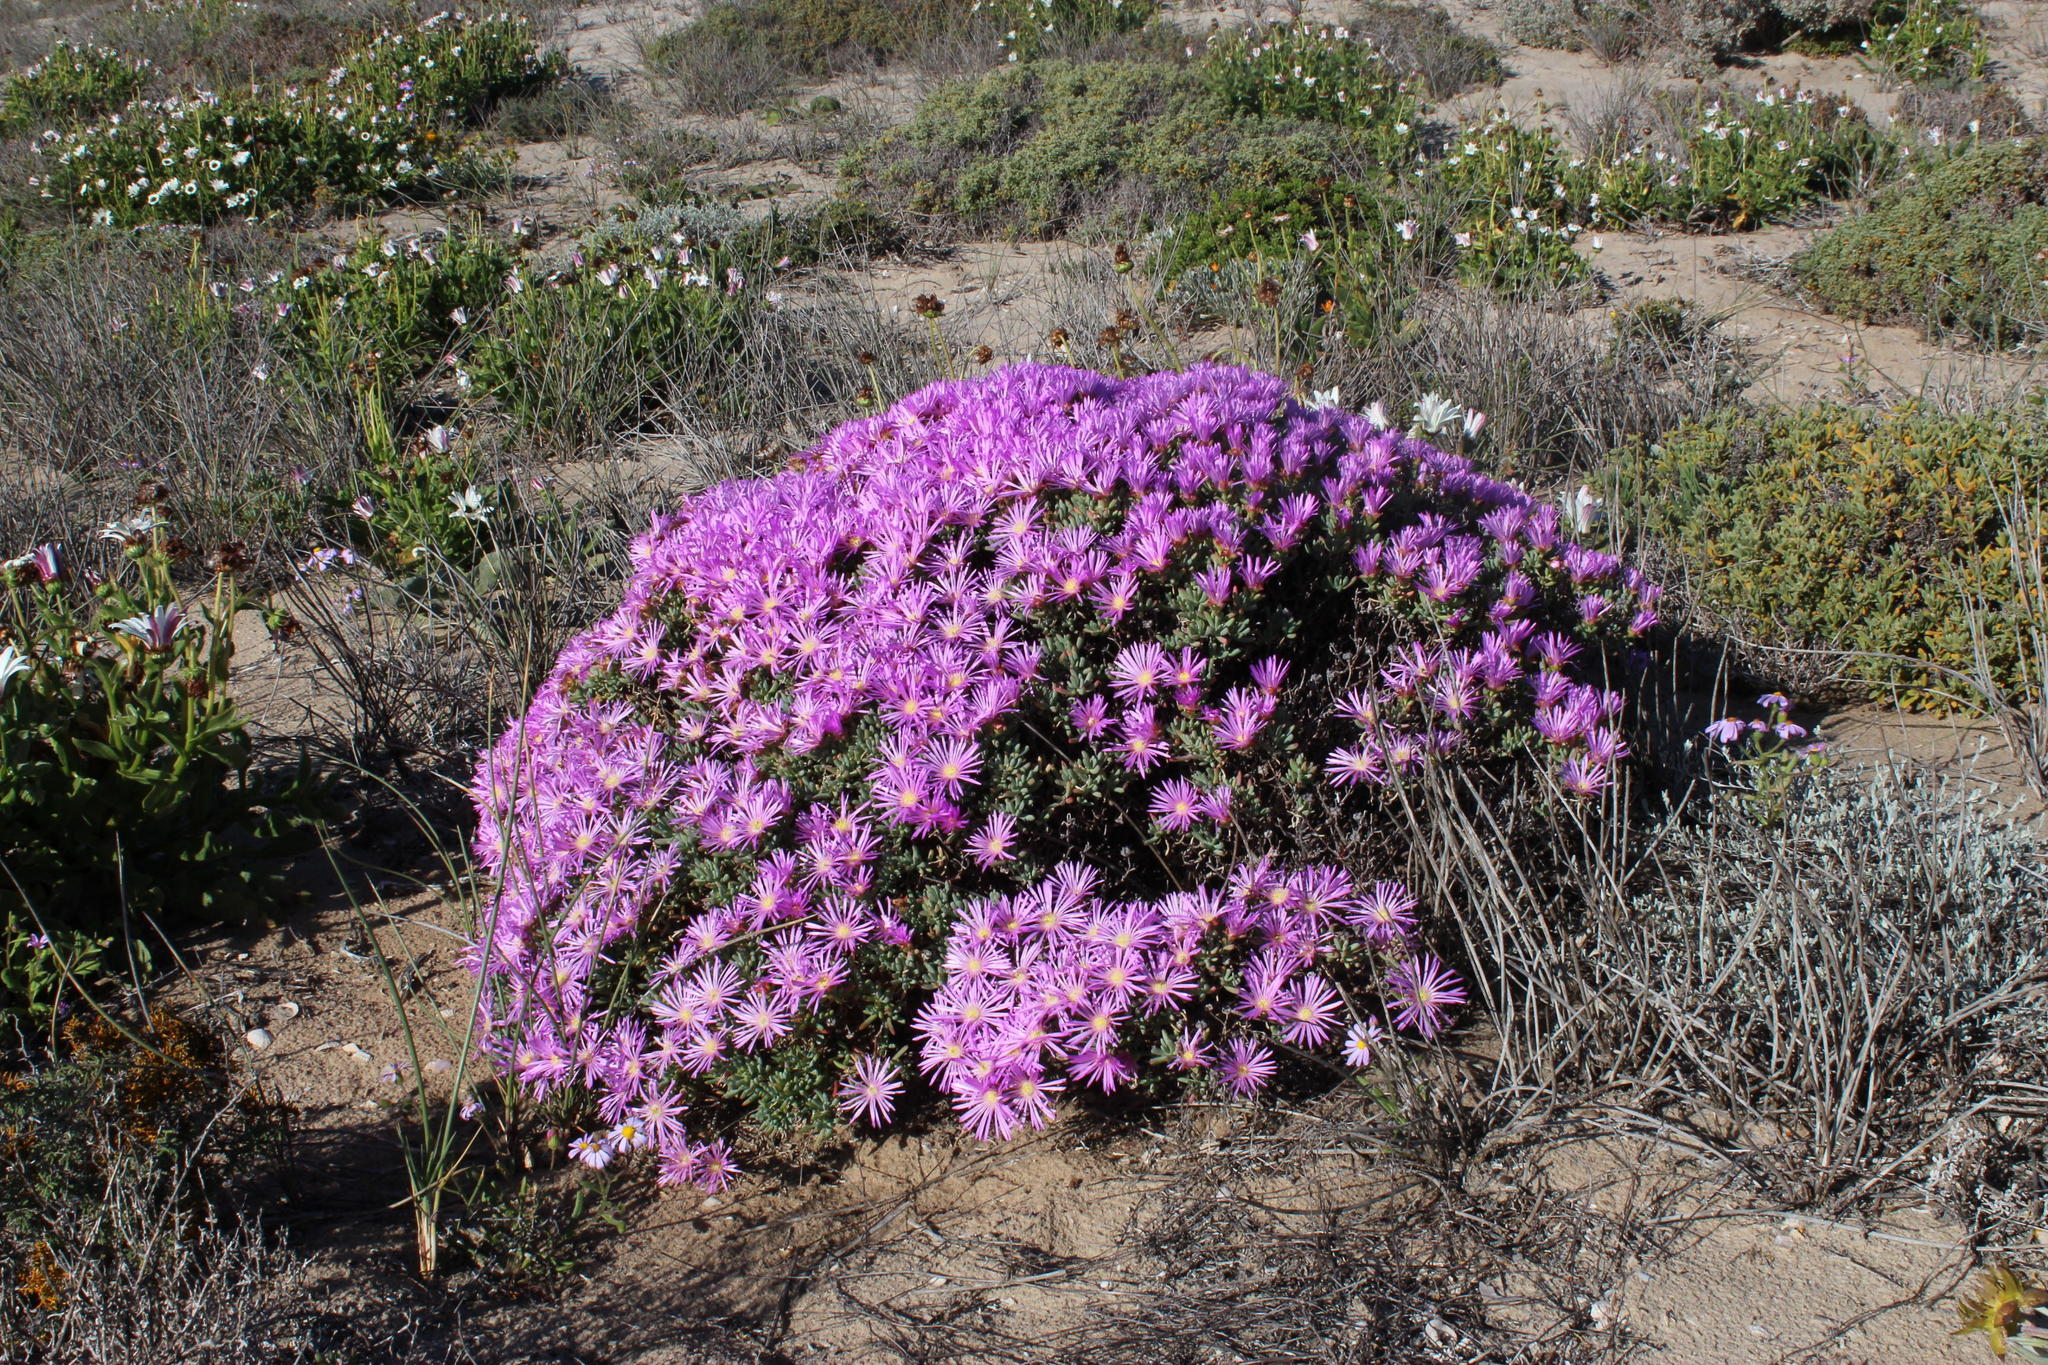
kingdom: Plantae
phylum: Tracheophyta
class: Magnoliopsida
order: Caryophyllales
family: Aizoaceae
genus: Lampranthus
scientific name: Lampranthus suavissimus
